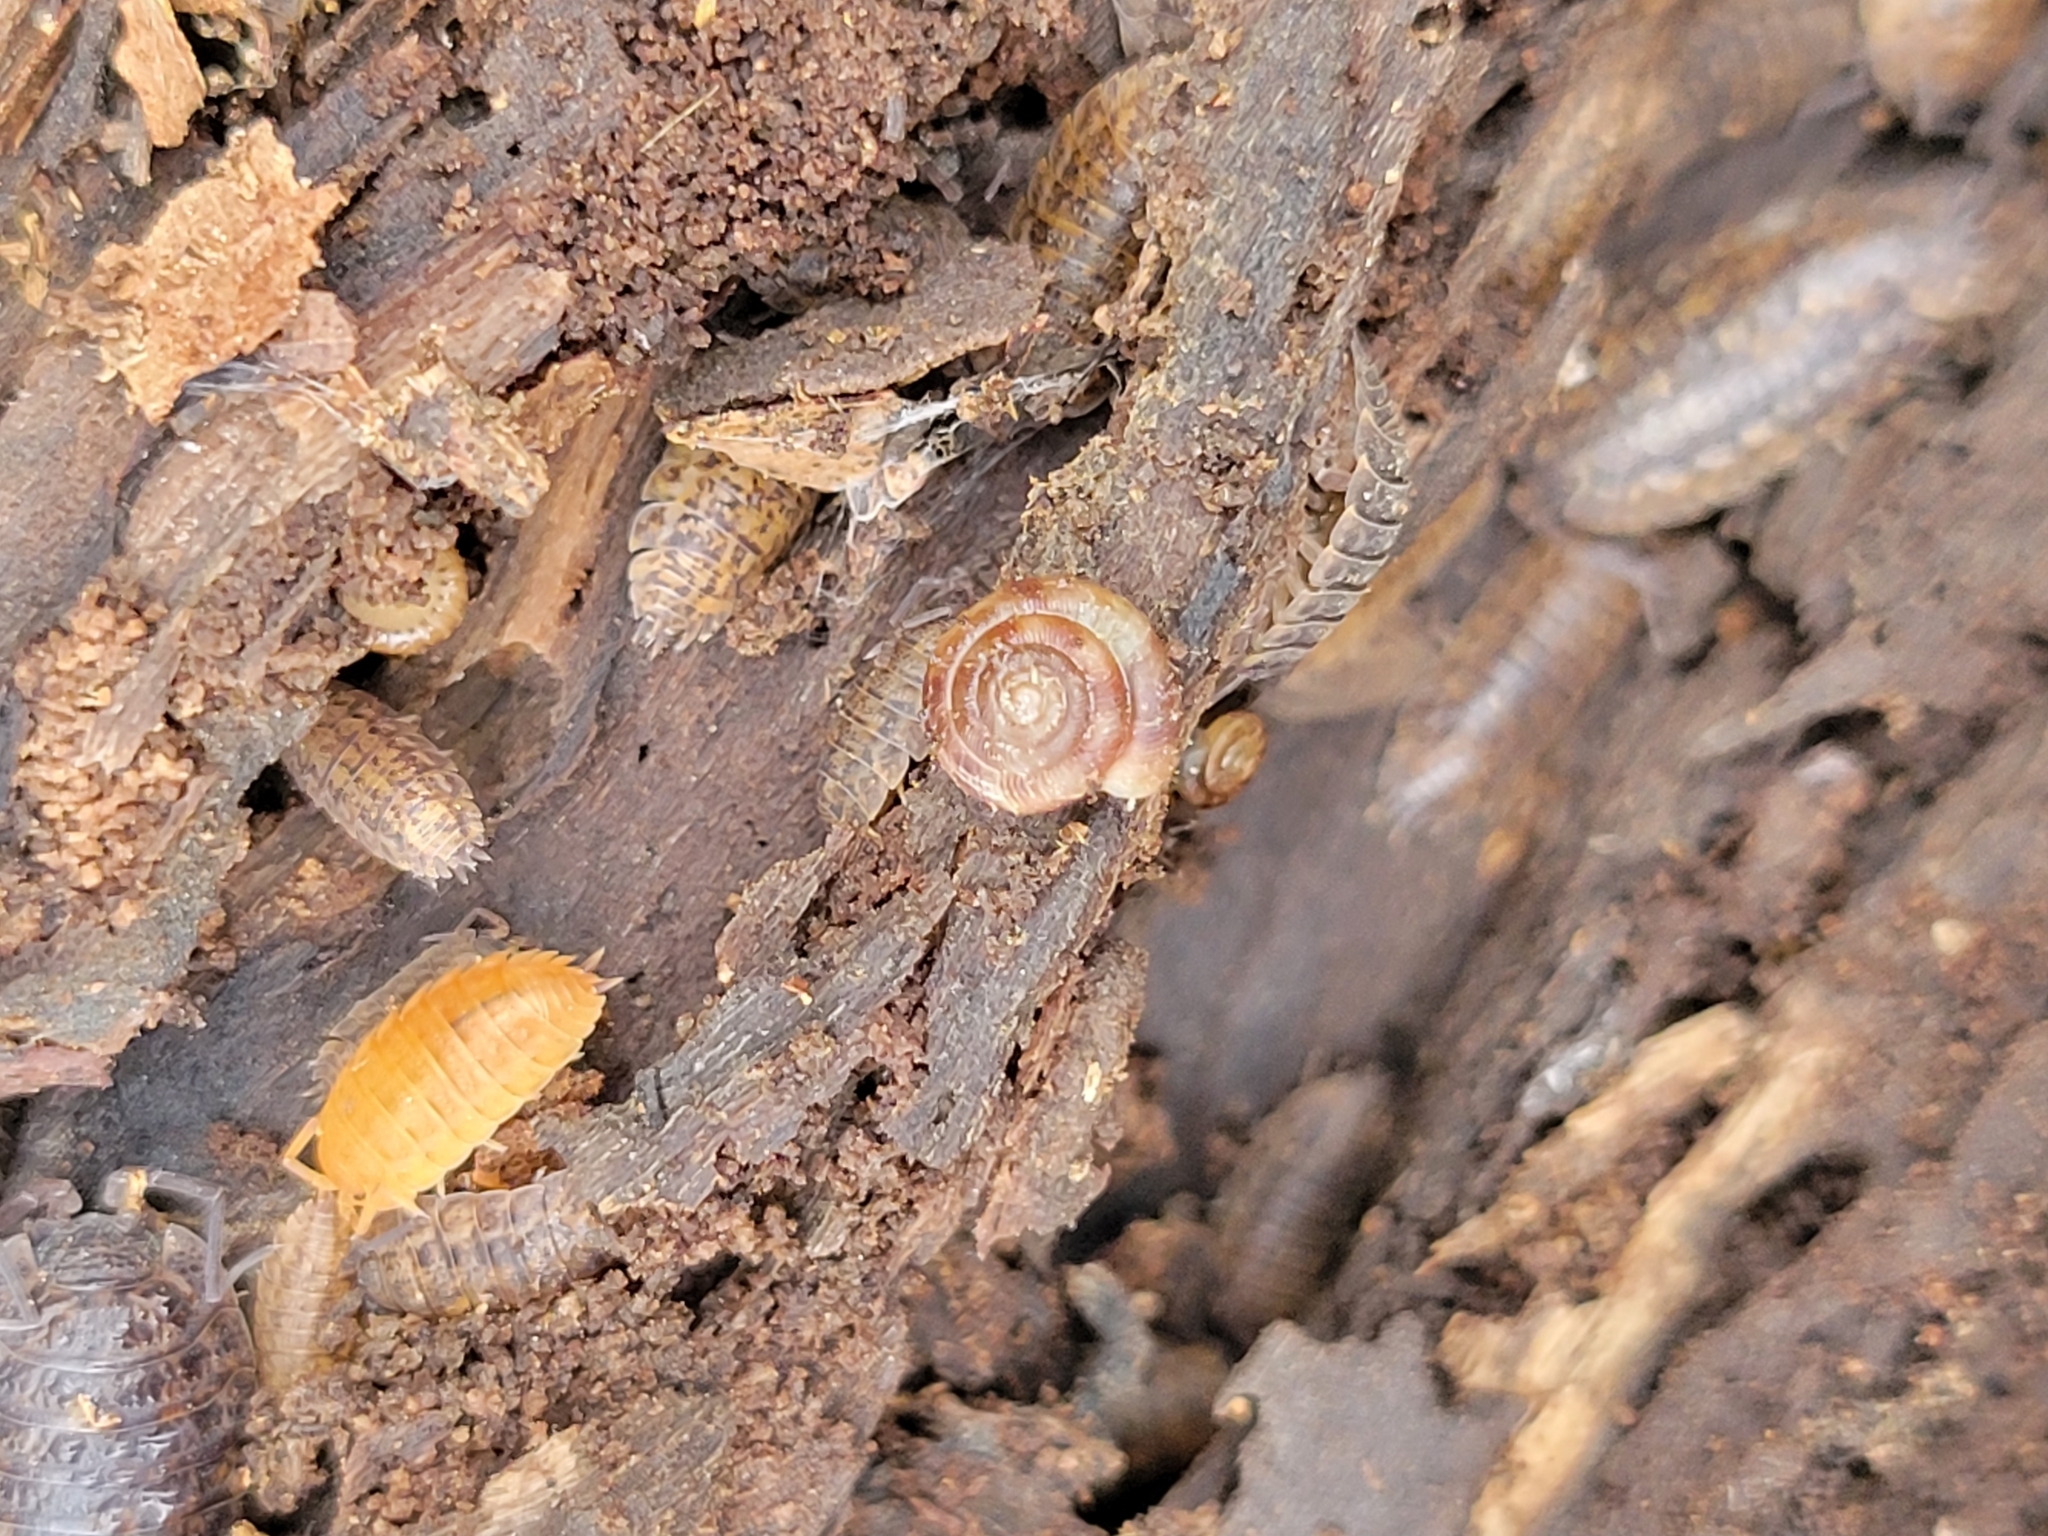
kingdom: Animalia
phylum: Mollusca
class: Gastropoda
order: Stylommatophora
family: Discidae
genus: Discus
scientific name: Discus rotundatus
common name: Rounded snail
